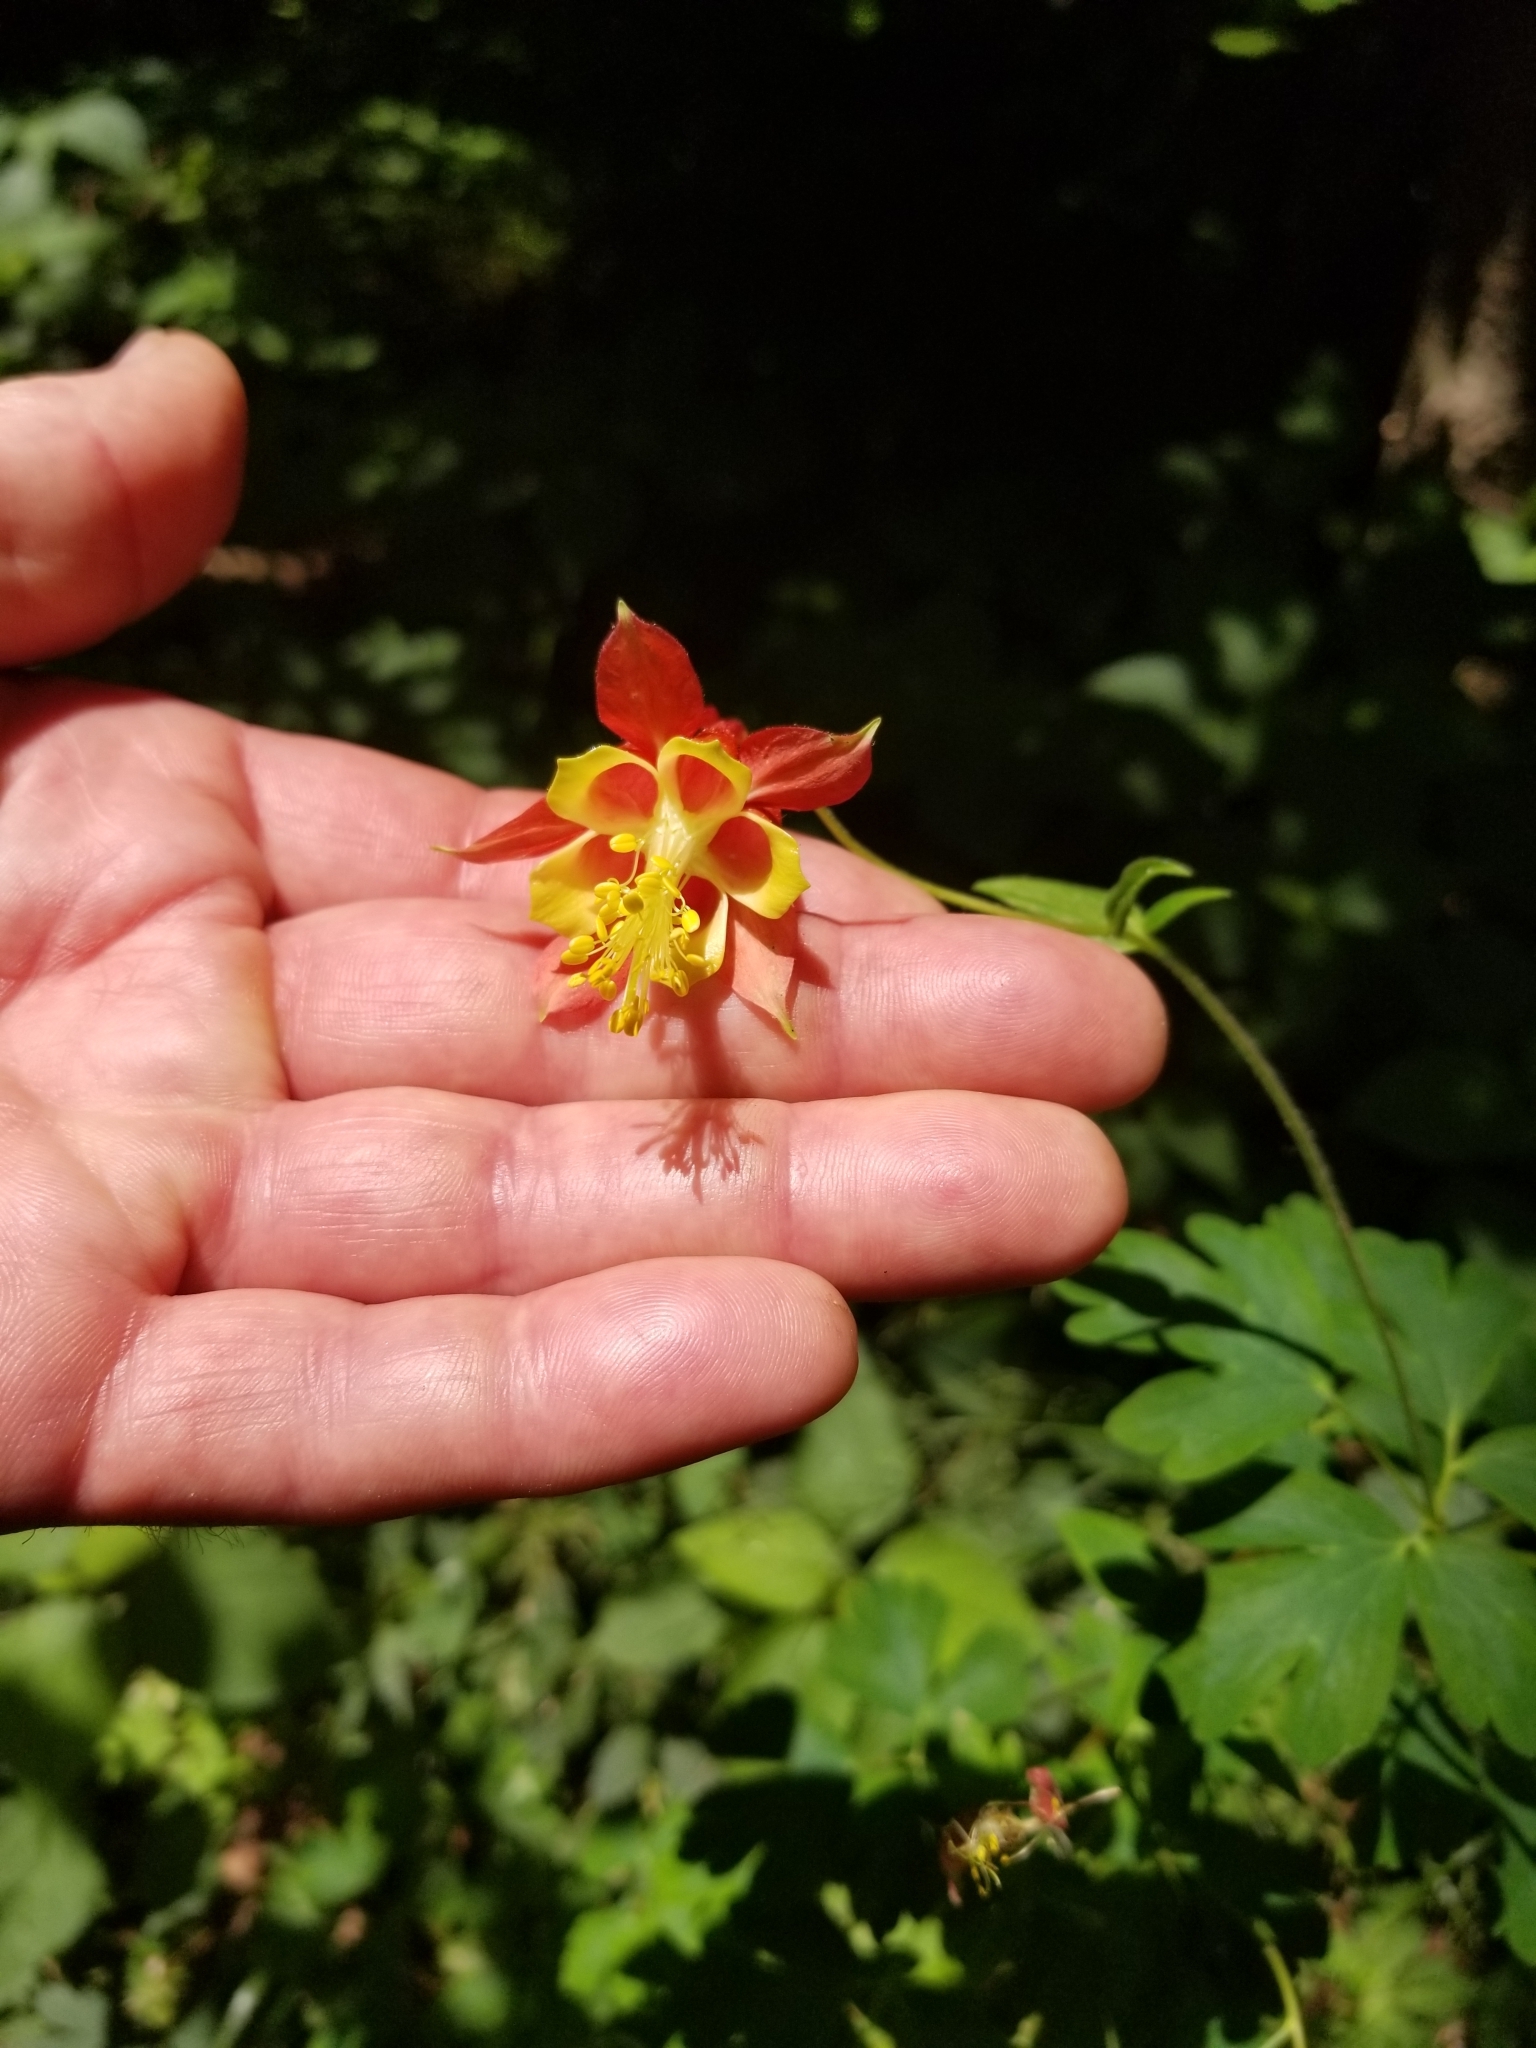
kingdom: Plantae
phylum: Tracheophyta
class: Magnoliopsida
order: Ranunculales
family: Ranunculaceae
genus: Aquilegia
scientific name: Aquilegia canadensis
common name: American columbine
